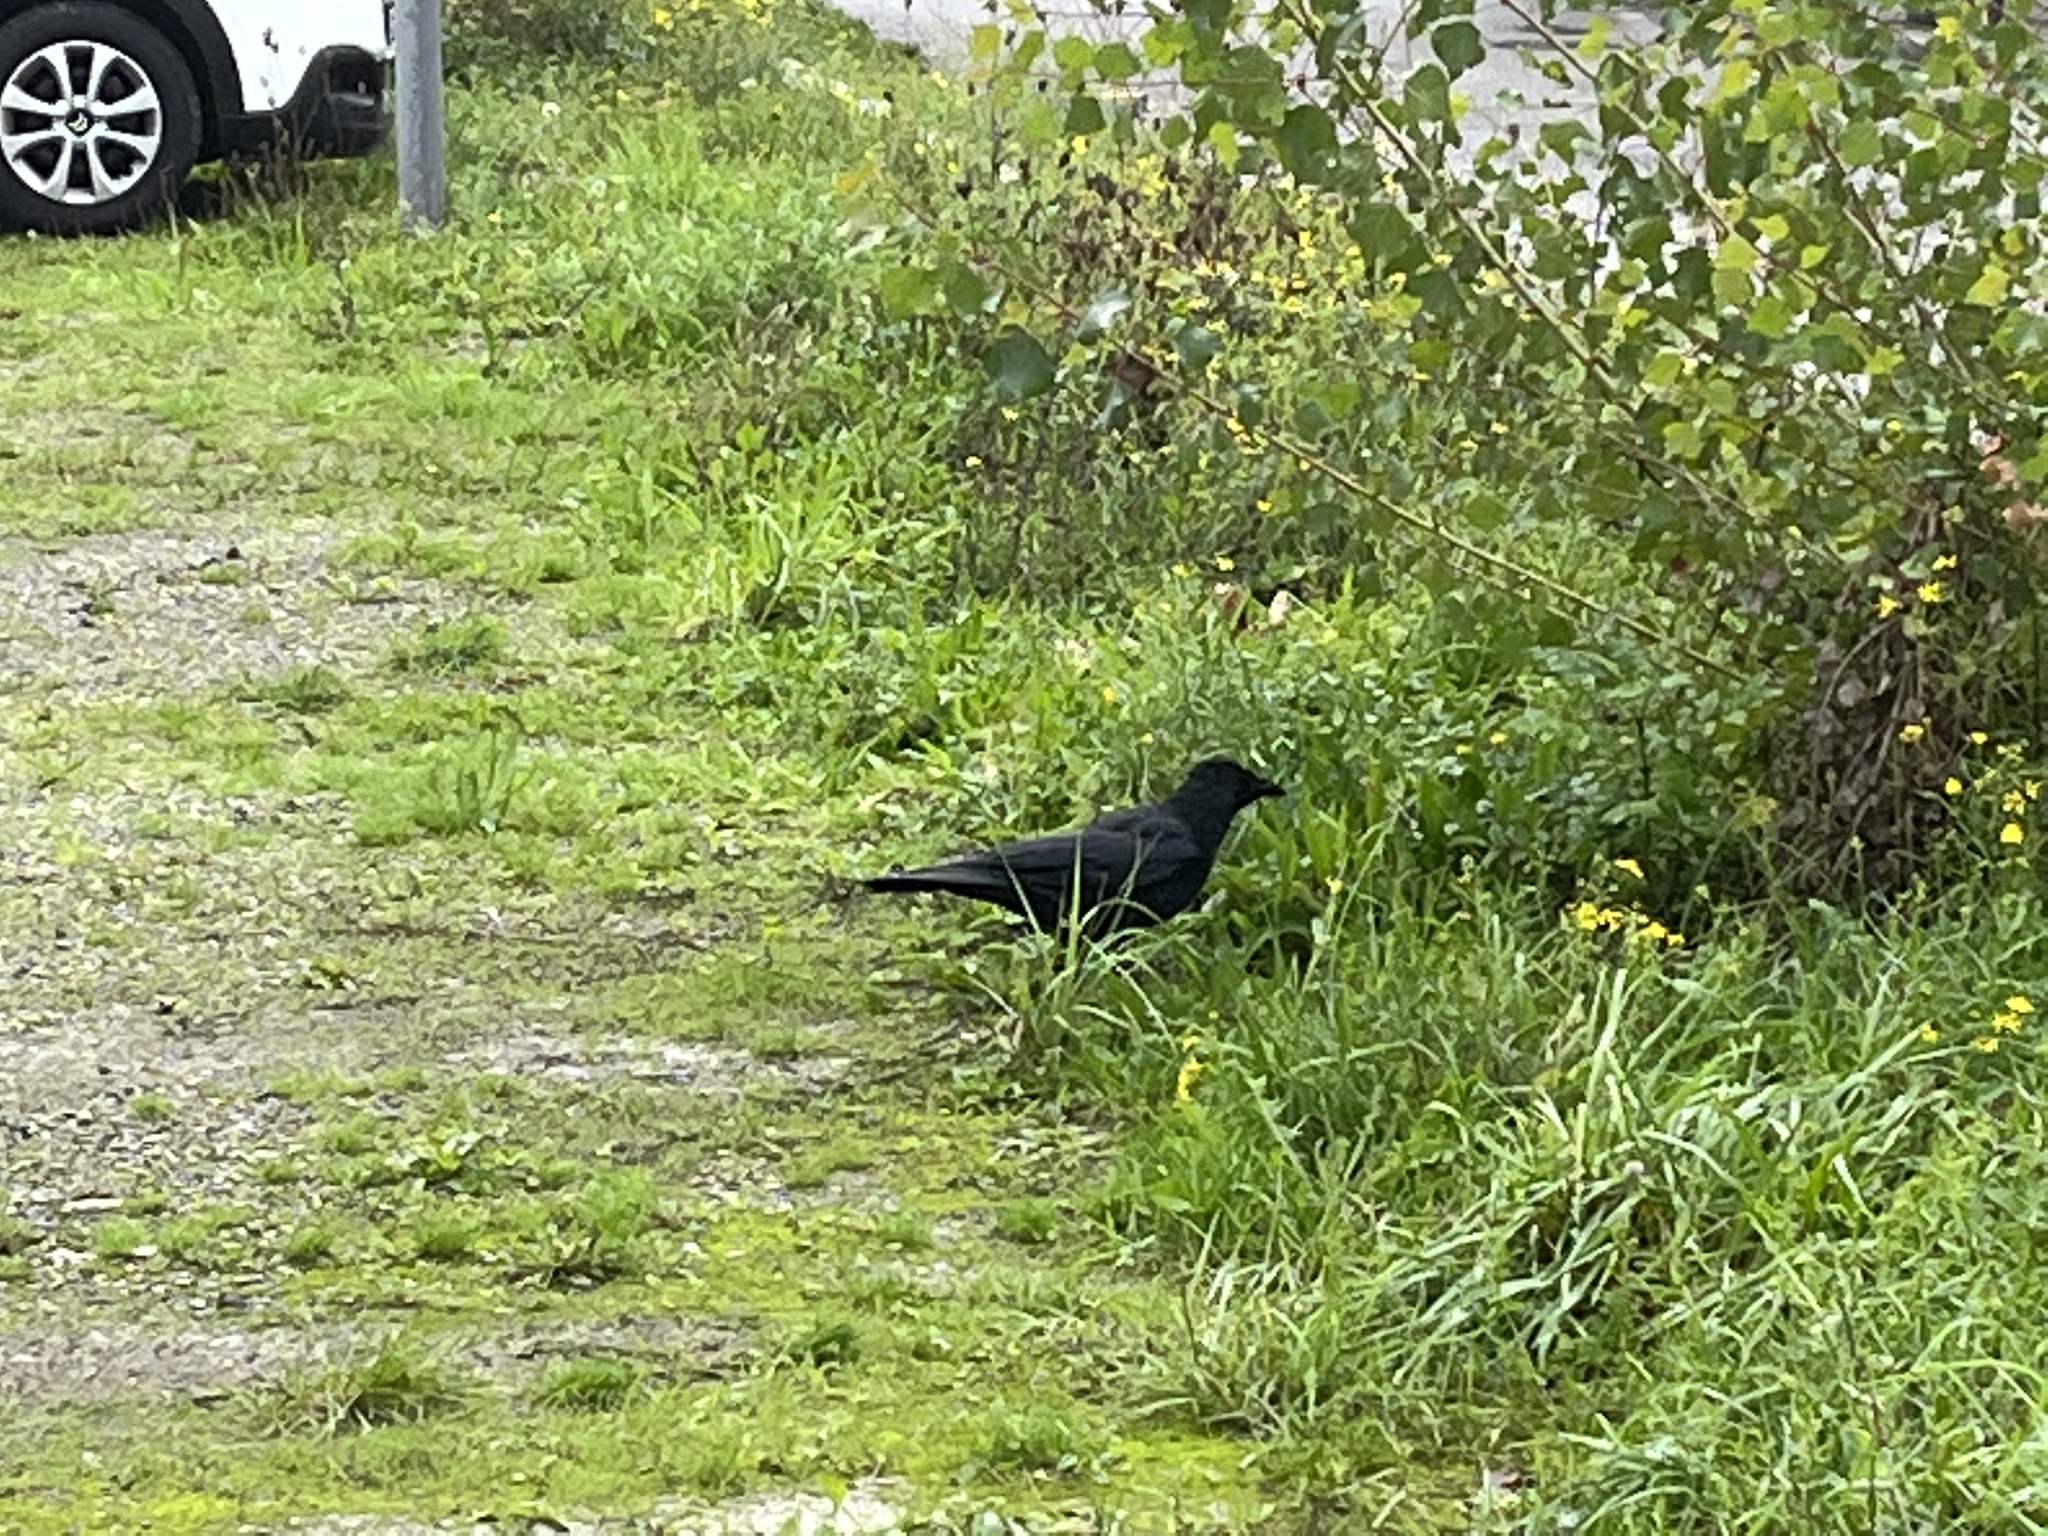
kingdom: Animalia
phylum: Chordata
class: Aves
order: Passeriformes
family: Corvidae
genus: Corvus
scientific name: Corvus corone
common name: Carrion crow
